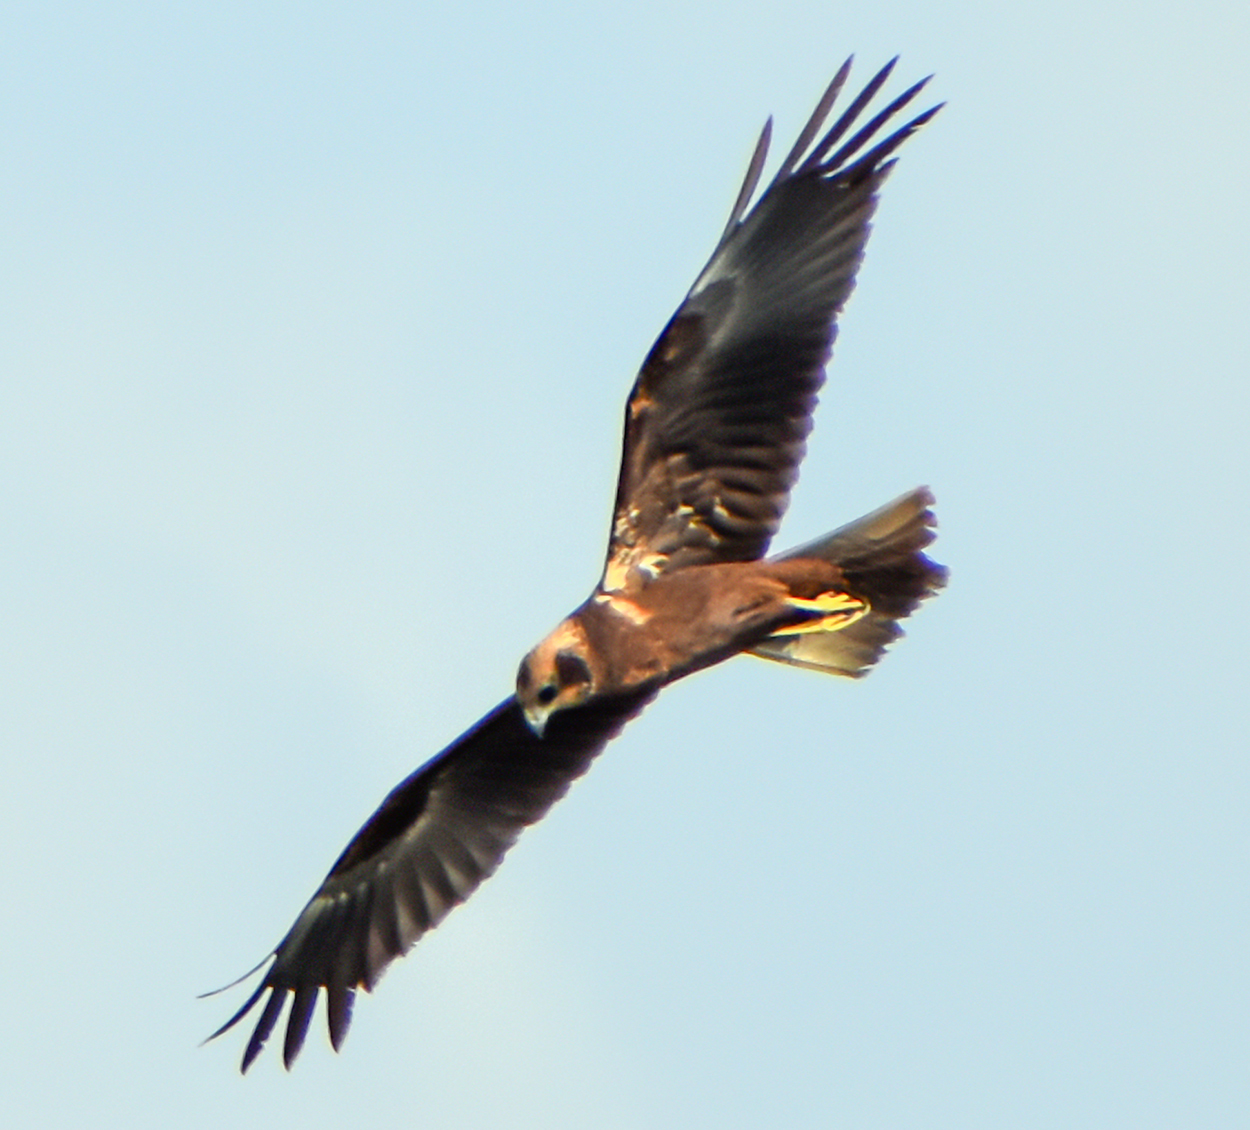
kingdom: Animalia
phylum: Chordata
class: Aves
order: Accipitriformes
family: Accipitridae
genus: Circus
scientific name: Circus aeruginosus
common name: Western marsh harrier
